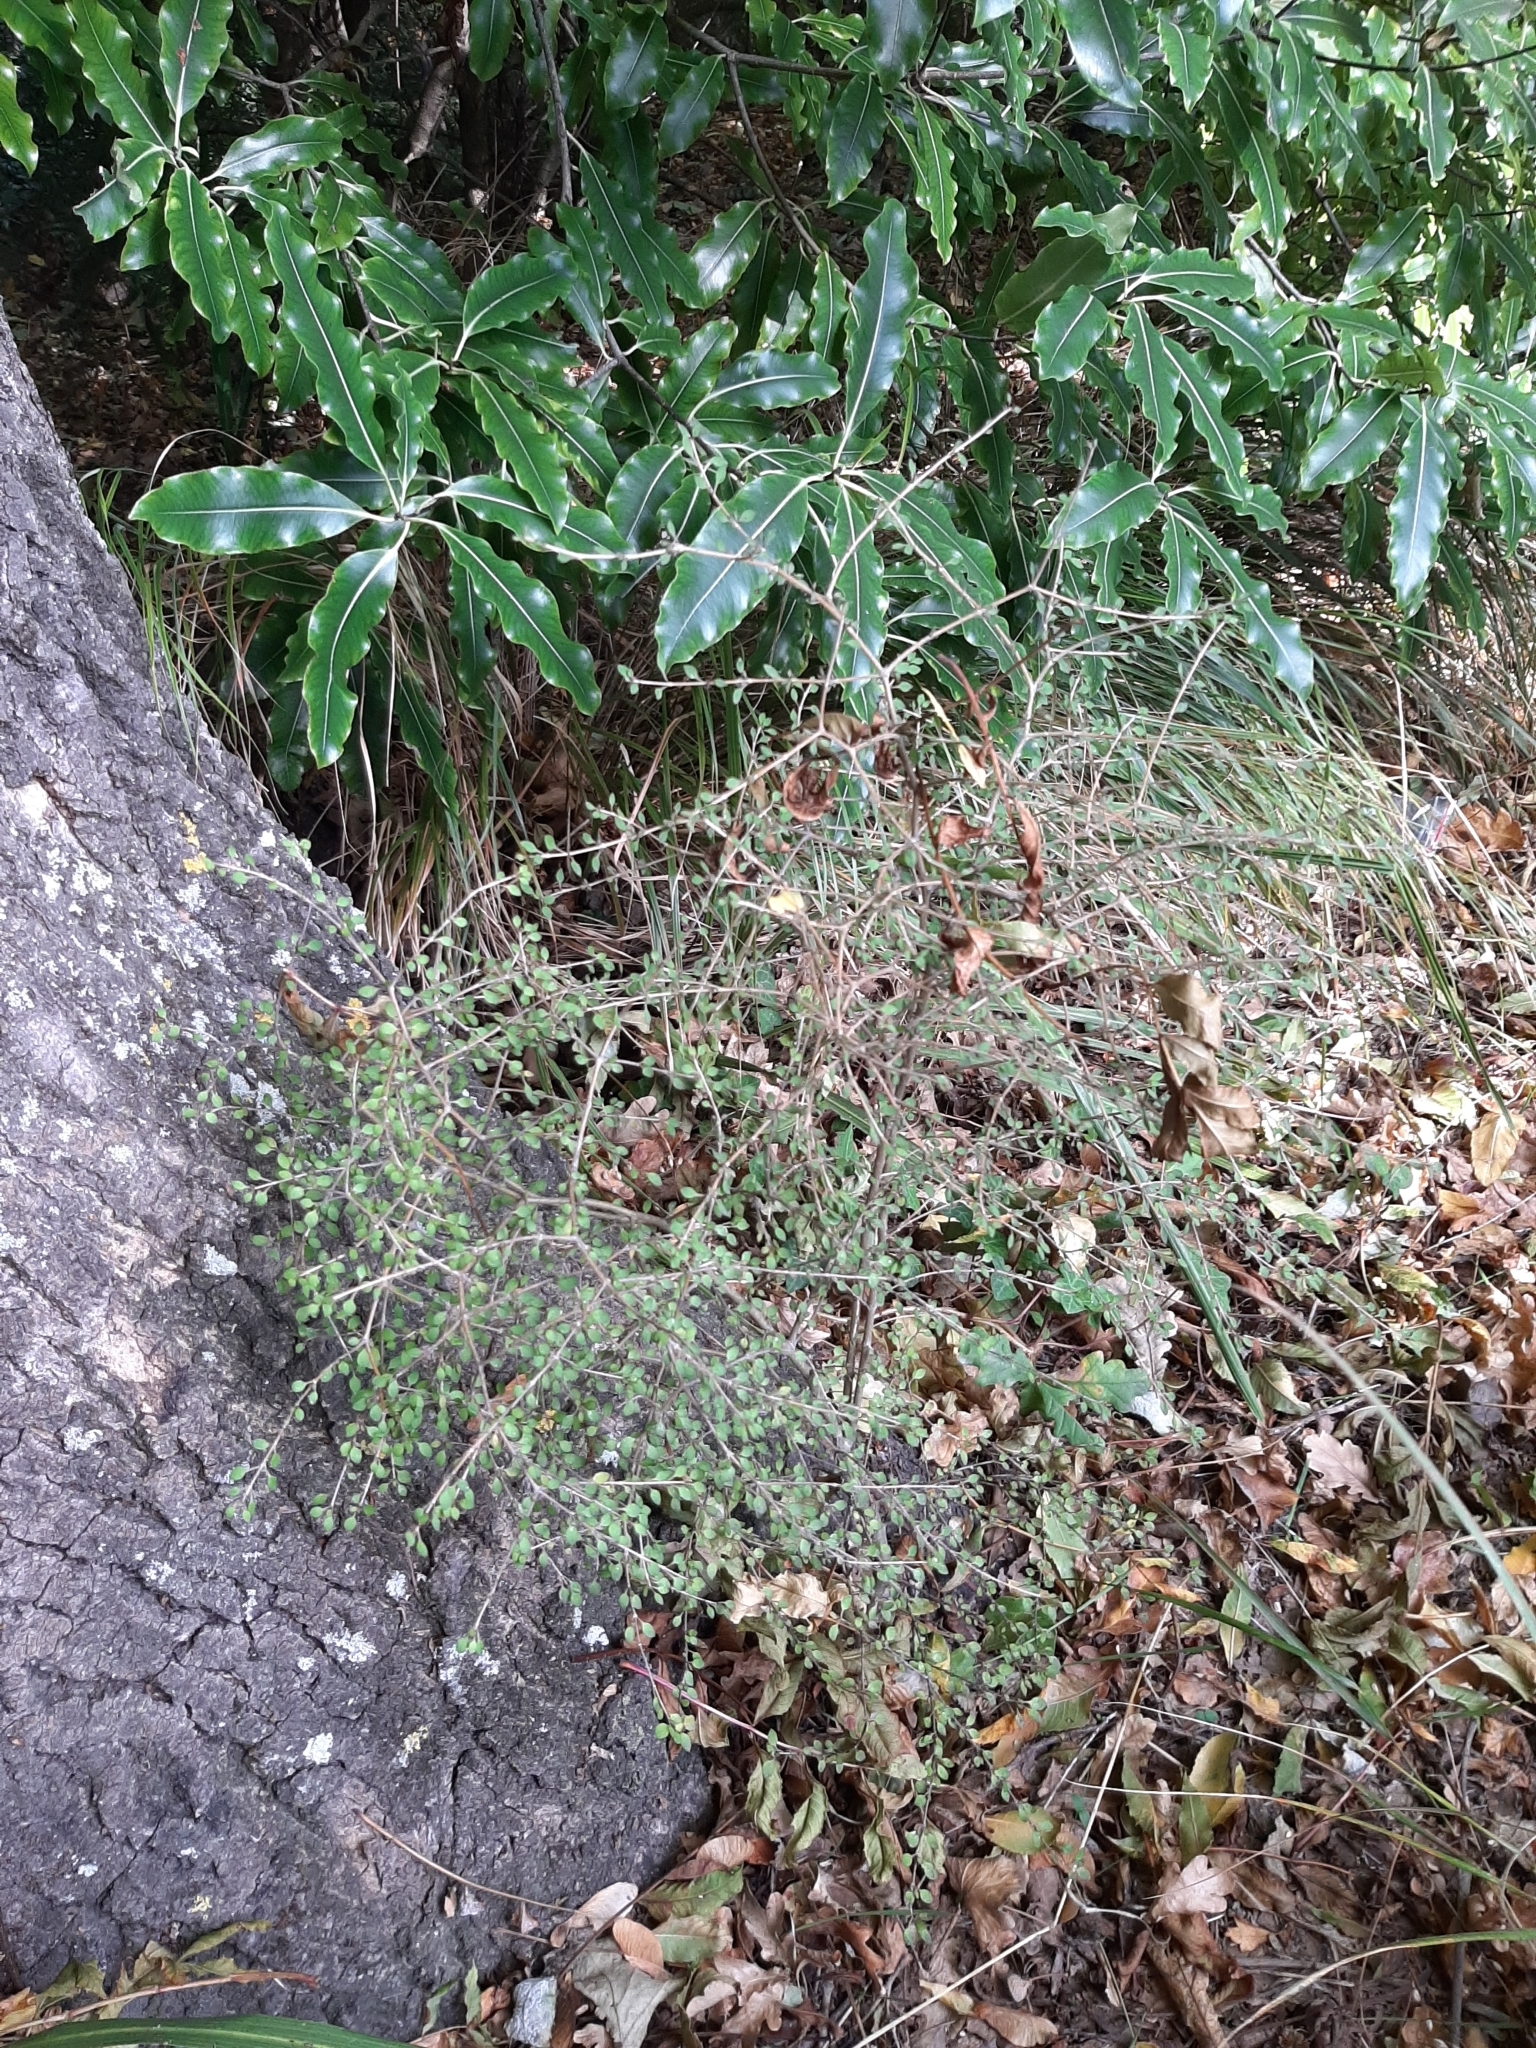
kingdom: Plantae
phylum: Tracheophyta
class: Magnoliopsida
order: Gentianales
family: Rubiaceae
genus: Coprosma
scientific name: Coprosma virescens
